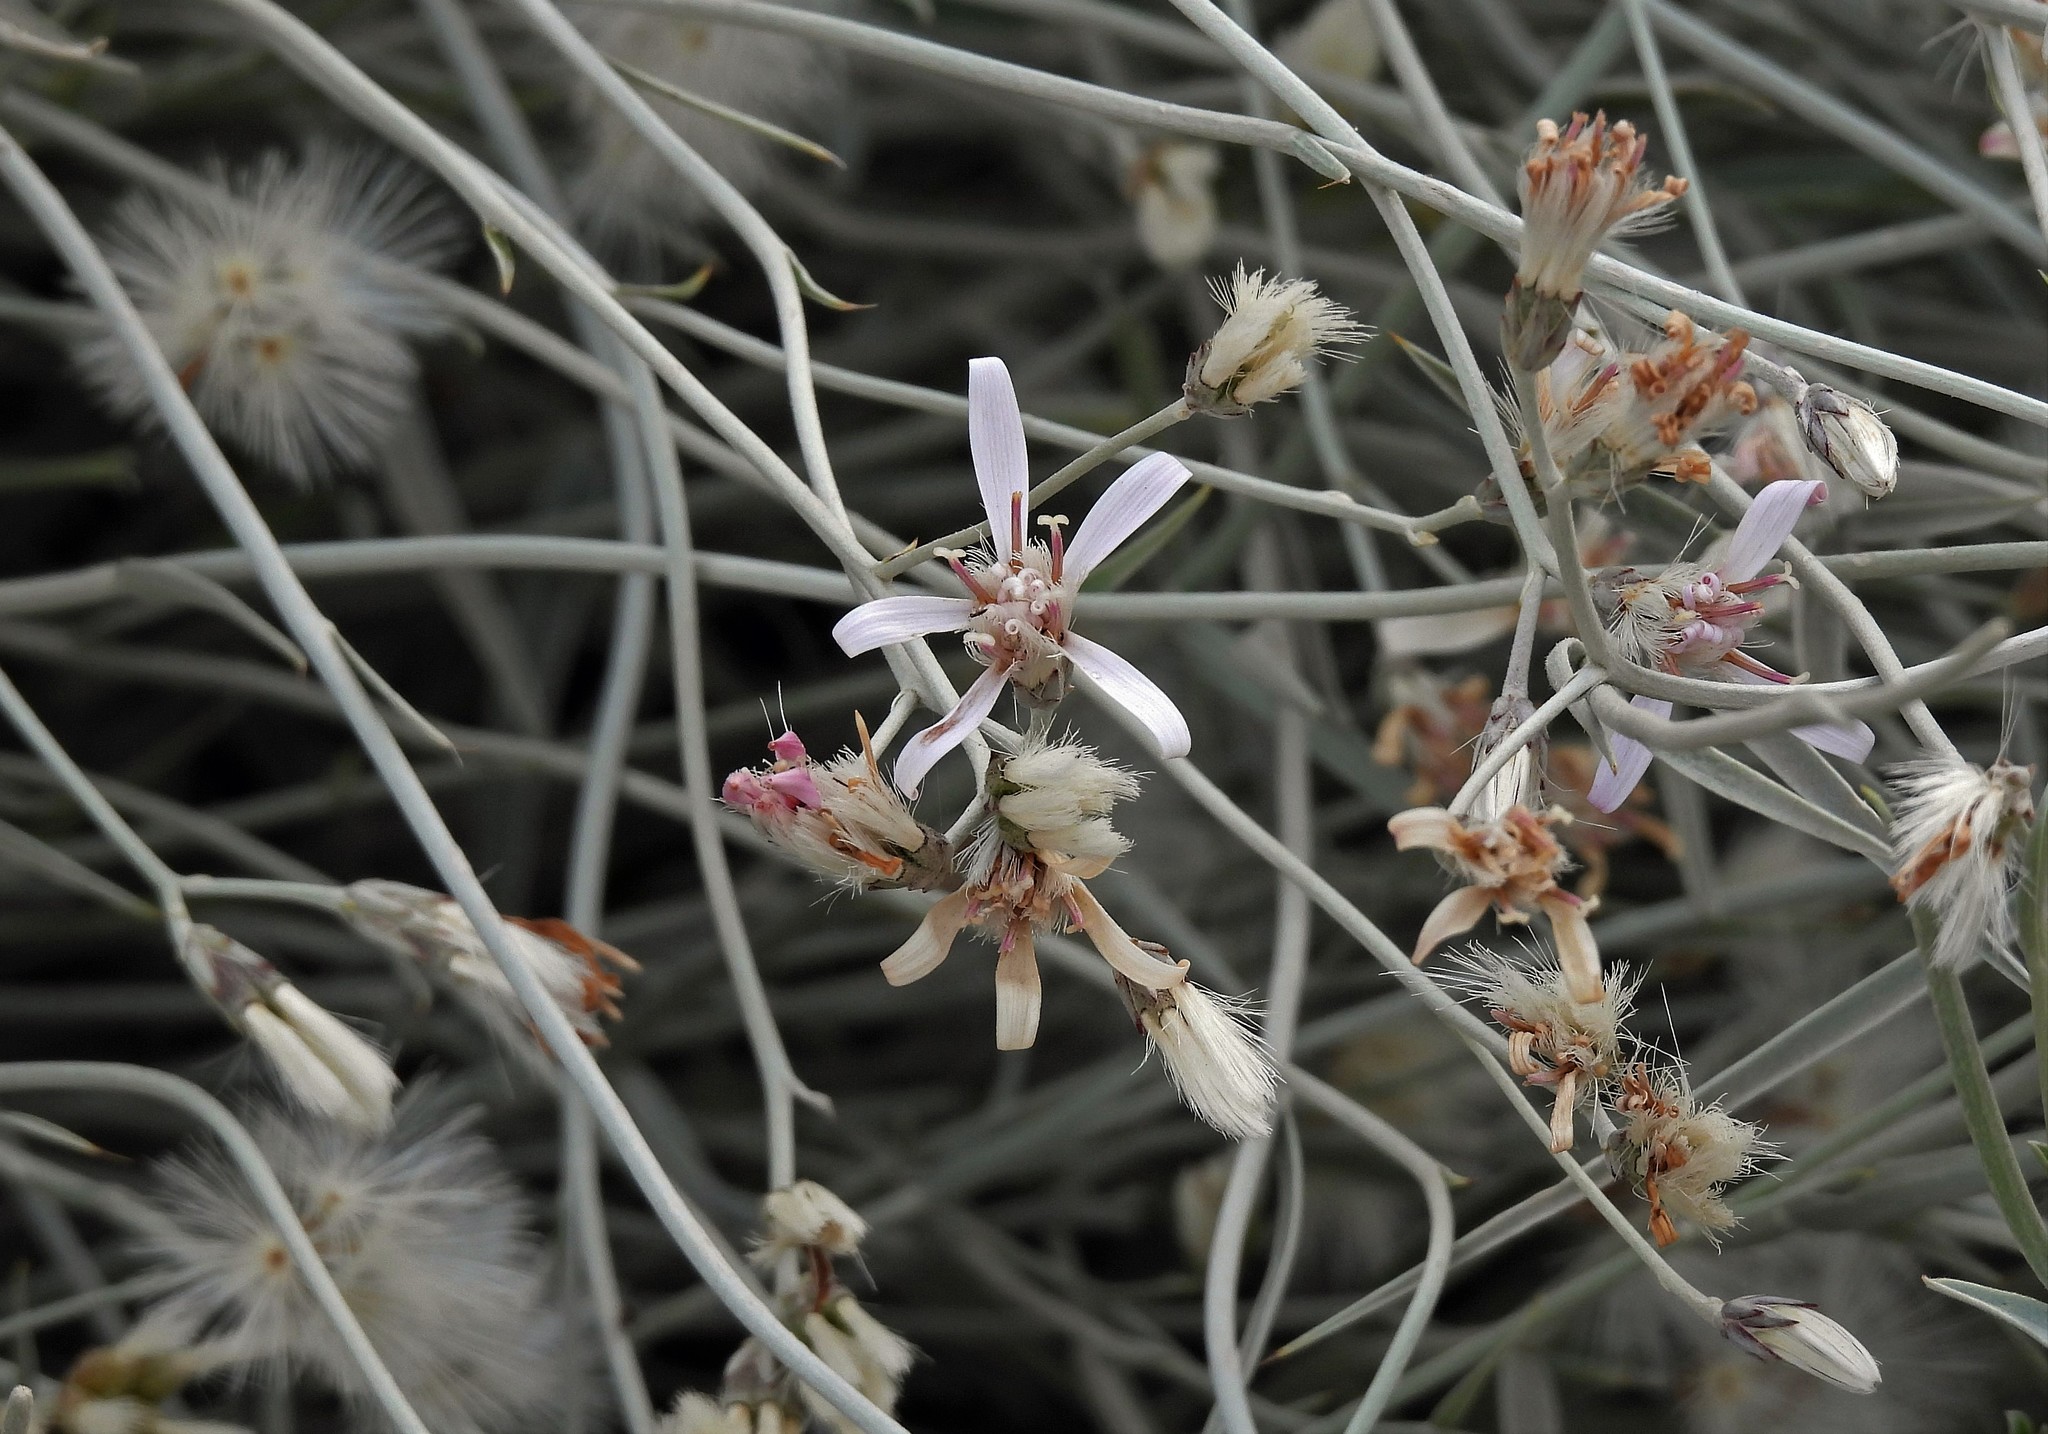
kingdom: Plantae
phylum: Tracheophyta
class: Magnoliopsida
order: Asterales
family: Asteraceae
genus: Hyalis
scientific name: Hyalis argentea
